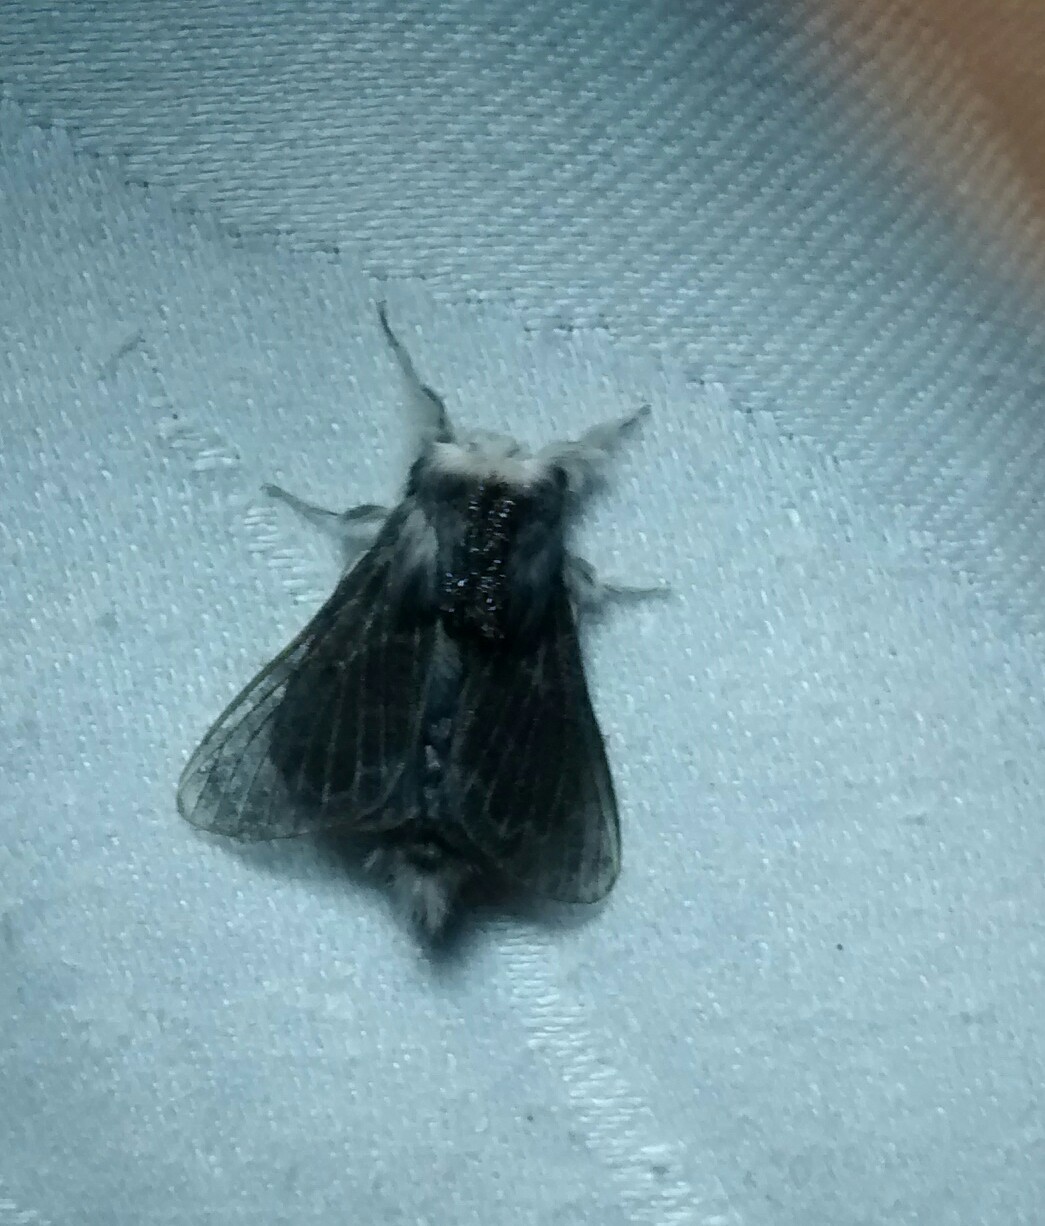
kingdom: Animalia
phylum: Arthropoda
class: Insecta
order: Lepidoptera
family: Lasiocampidae
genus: Tolype
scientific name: Tolype laricis
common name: Larch tolype moth
